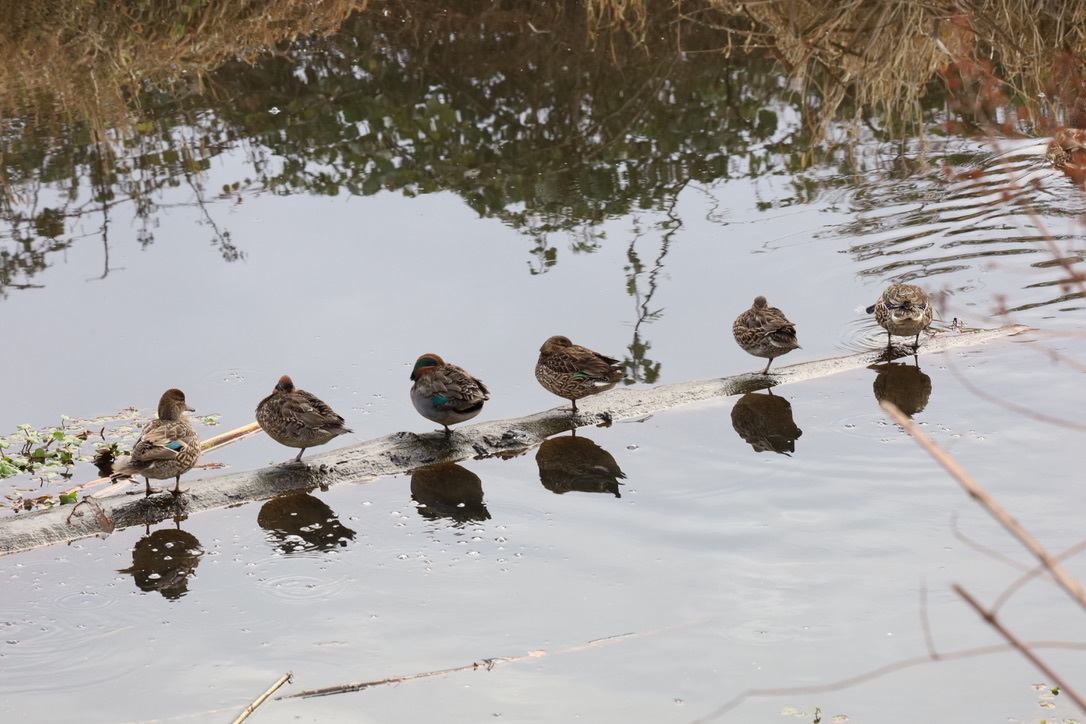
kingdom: Animalia
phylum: Chordata
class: Aves
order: Anseriformes
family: Anatidae
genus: Anas
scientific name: Anas crecca
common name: Eurasian teal
